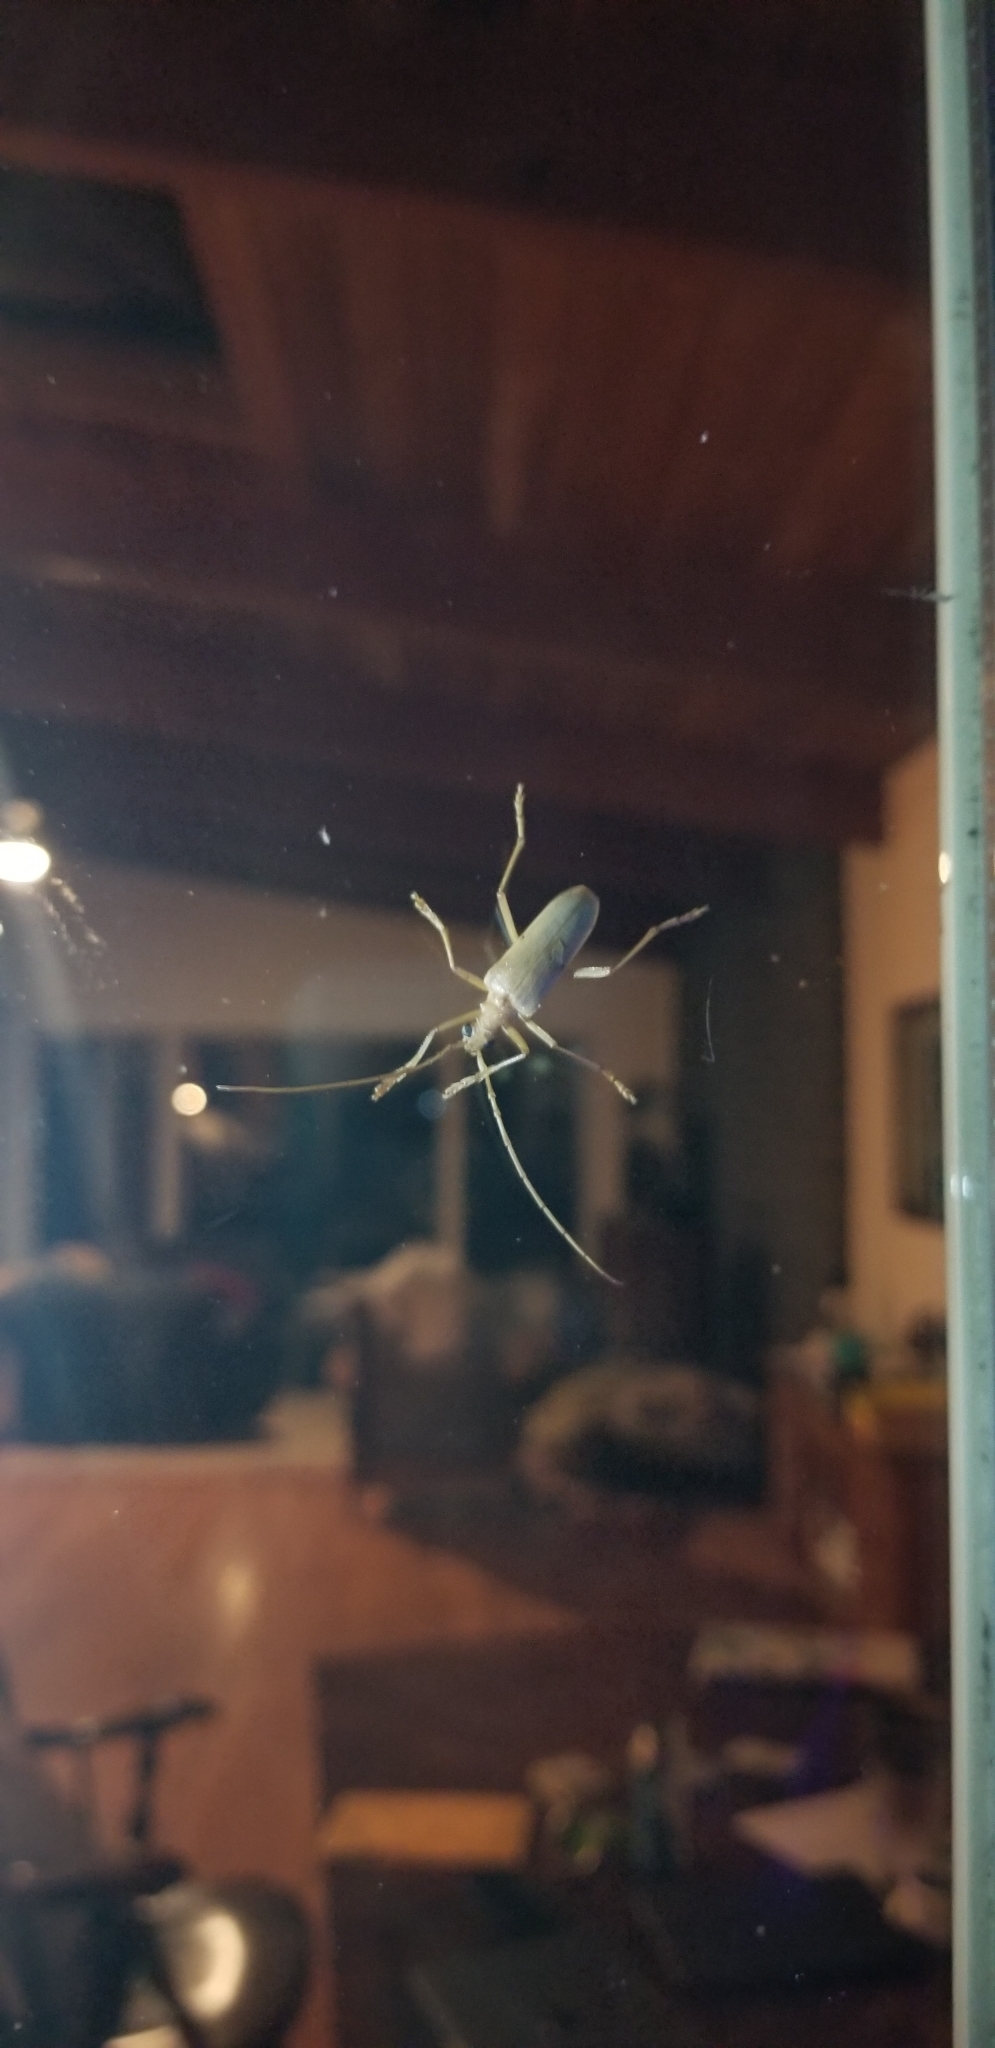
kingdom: Animalia
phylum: Arthropoda
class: Insecta
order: Coleoptera
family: Cerambycidae
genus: Centrodera
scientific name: Centrodera spurca
